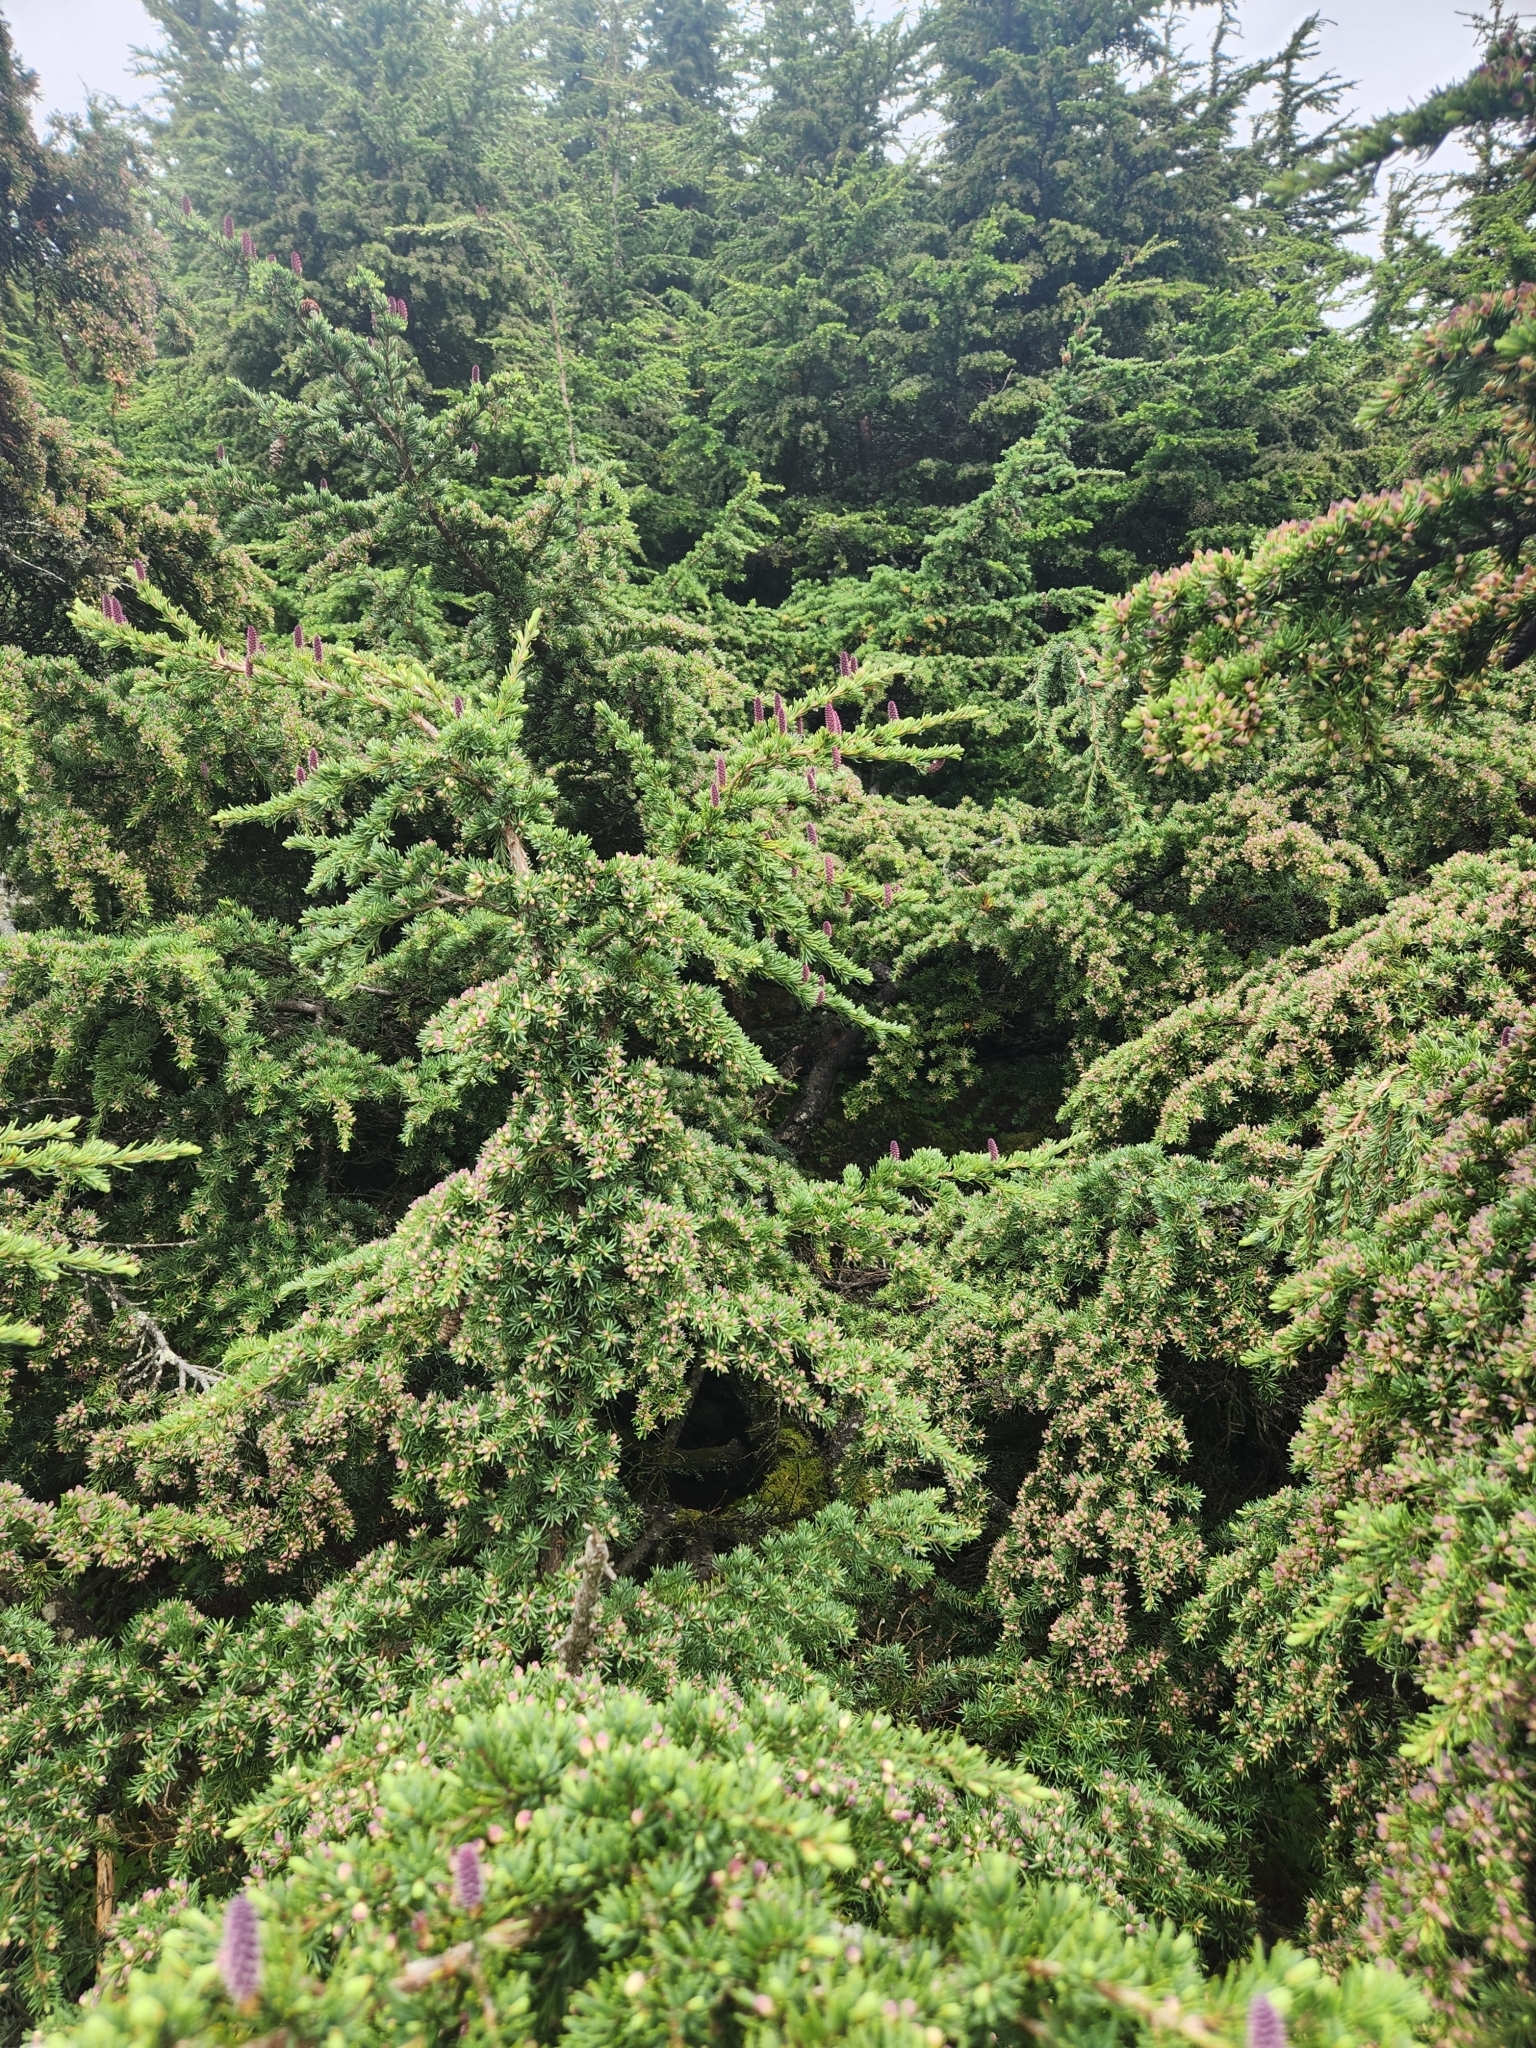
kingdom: Plantae
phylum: Tracheophyta
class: Pinopsida
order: Pinales
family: Pinaceae
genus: Tsuga
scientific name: Tsuga mertensiana
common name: Mountain hemlock
